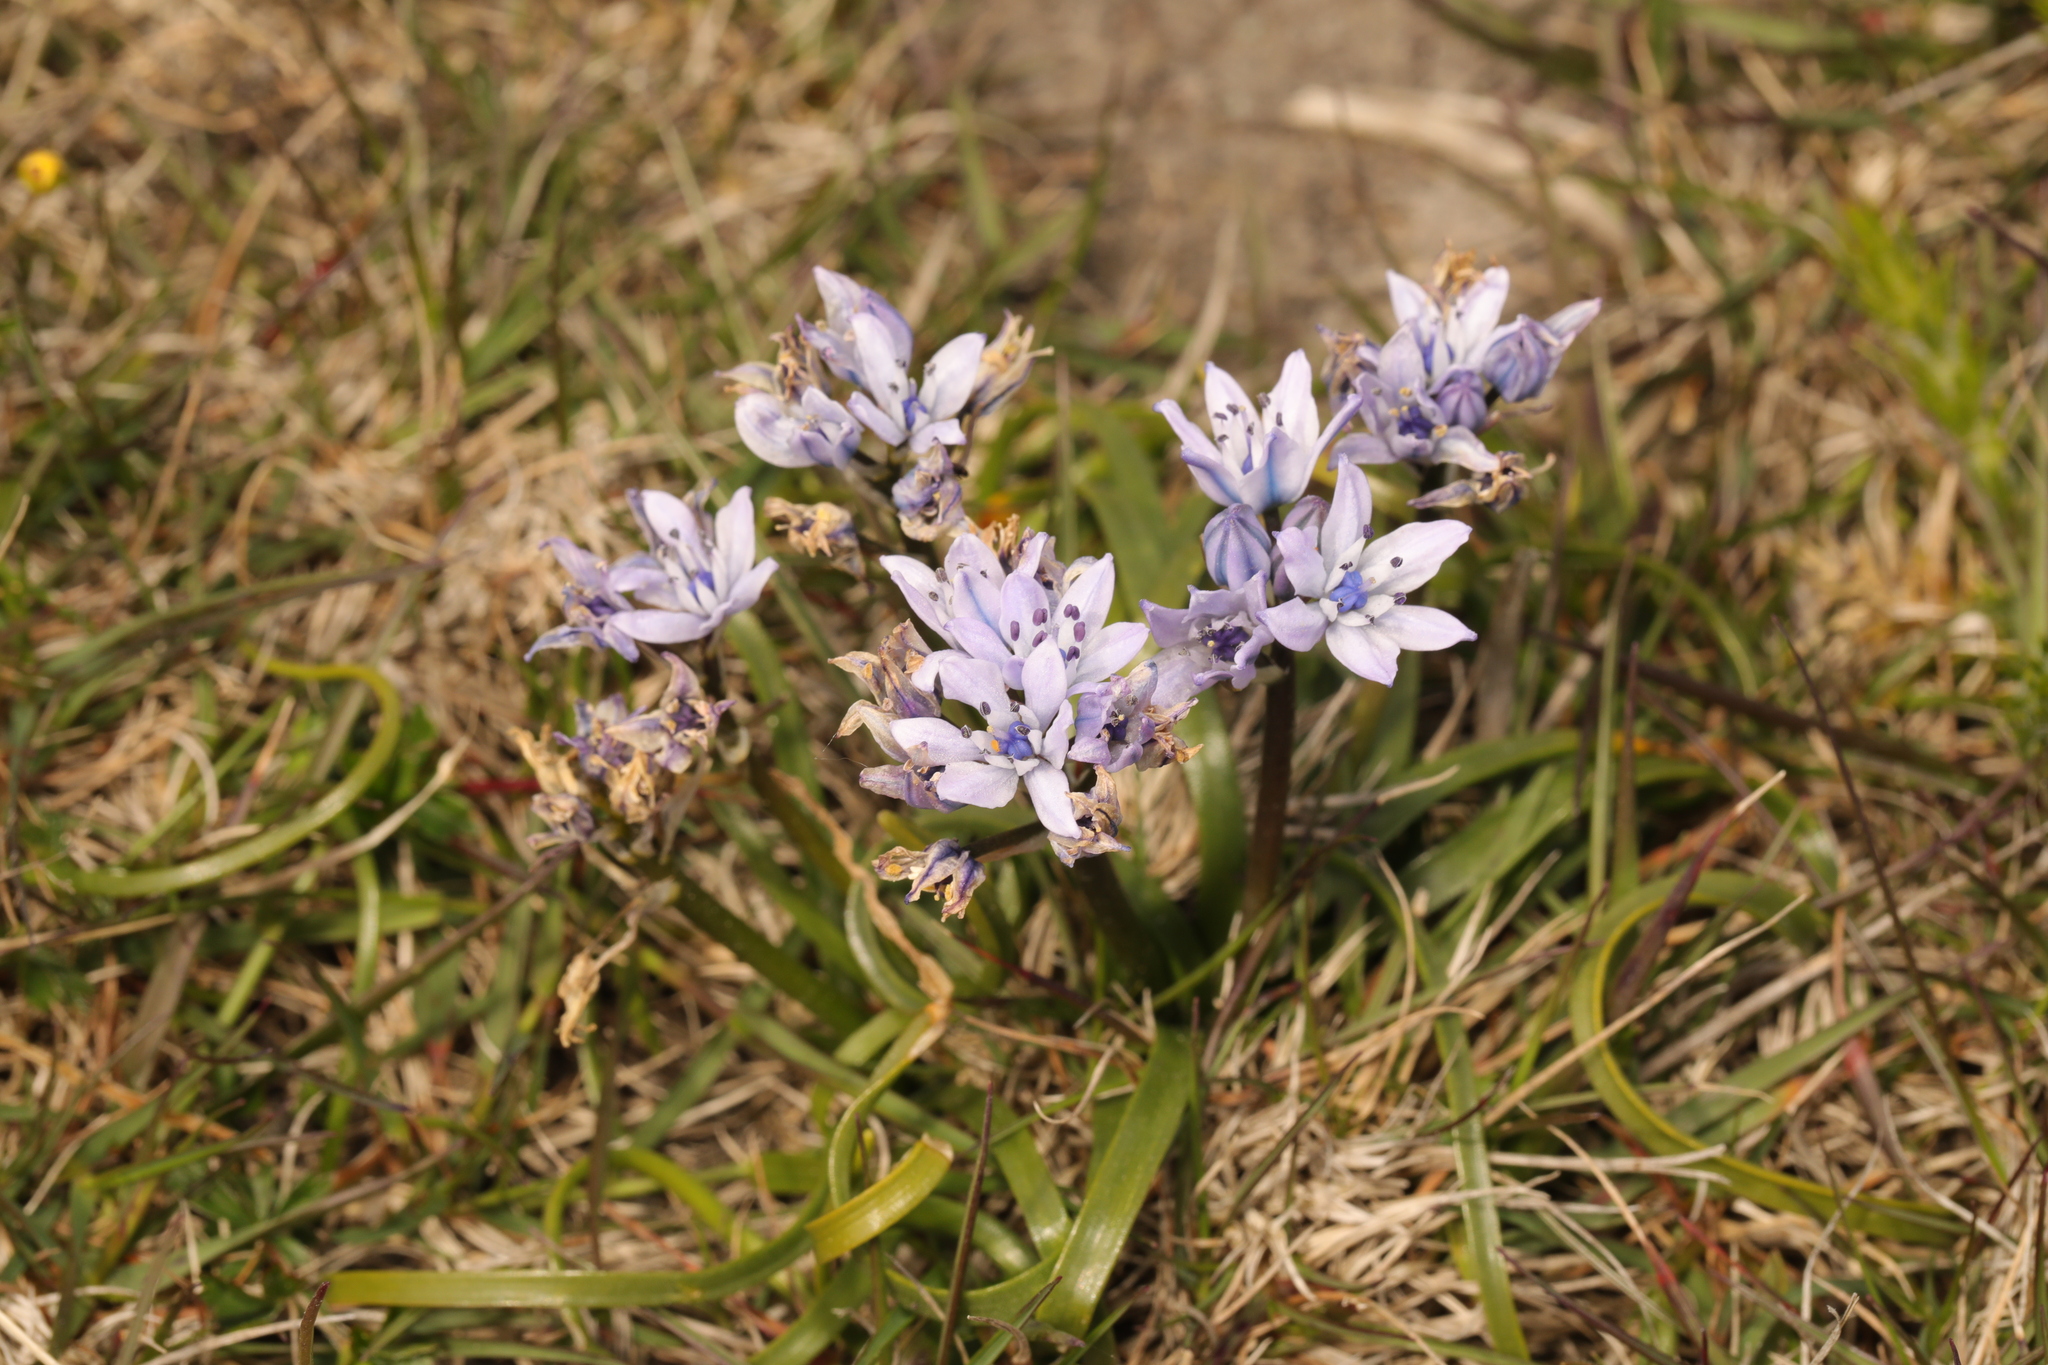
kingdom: Plantae
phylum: Tracheophyta
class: Liliopsida
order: Asparagales
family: Asparagaceae
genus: Scilla
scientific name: Scilla verna
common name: Spring squill
